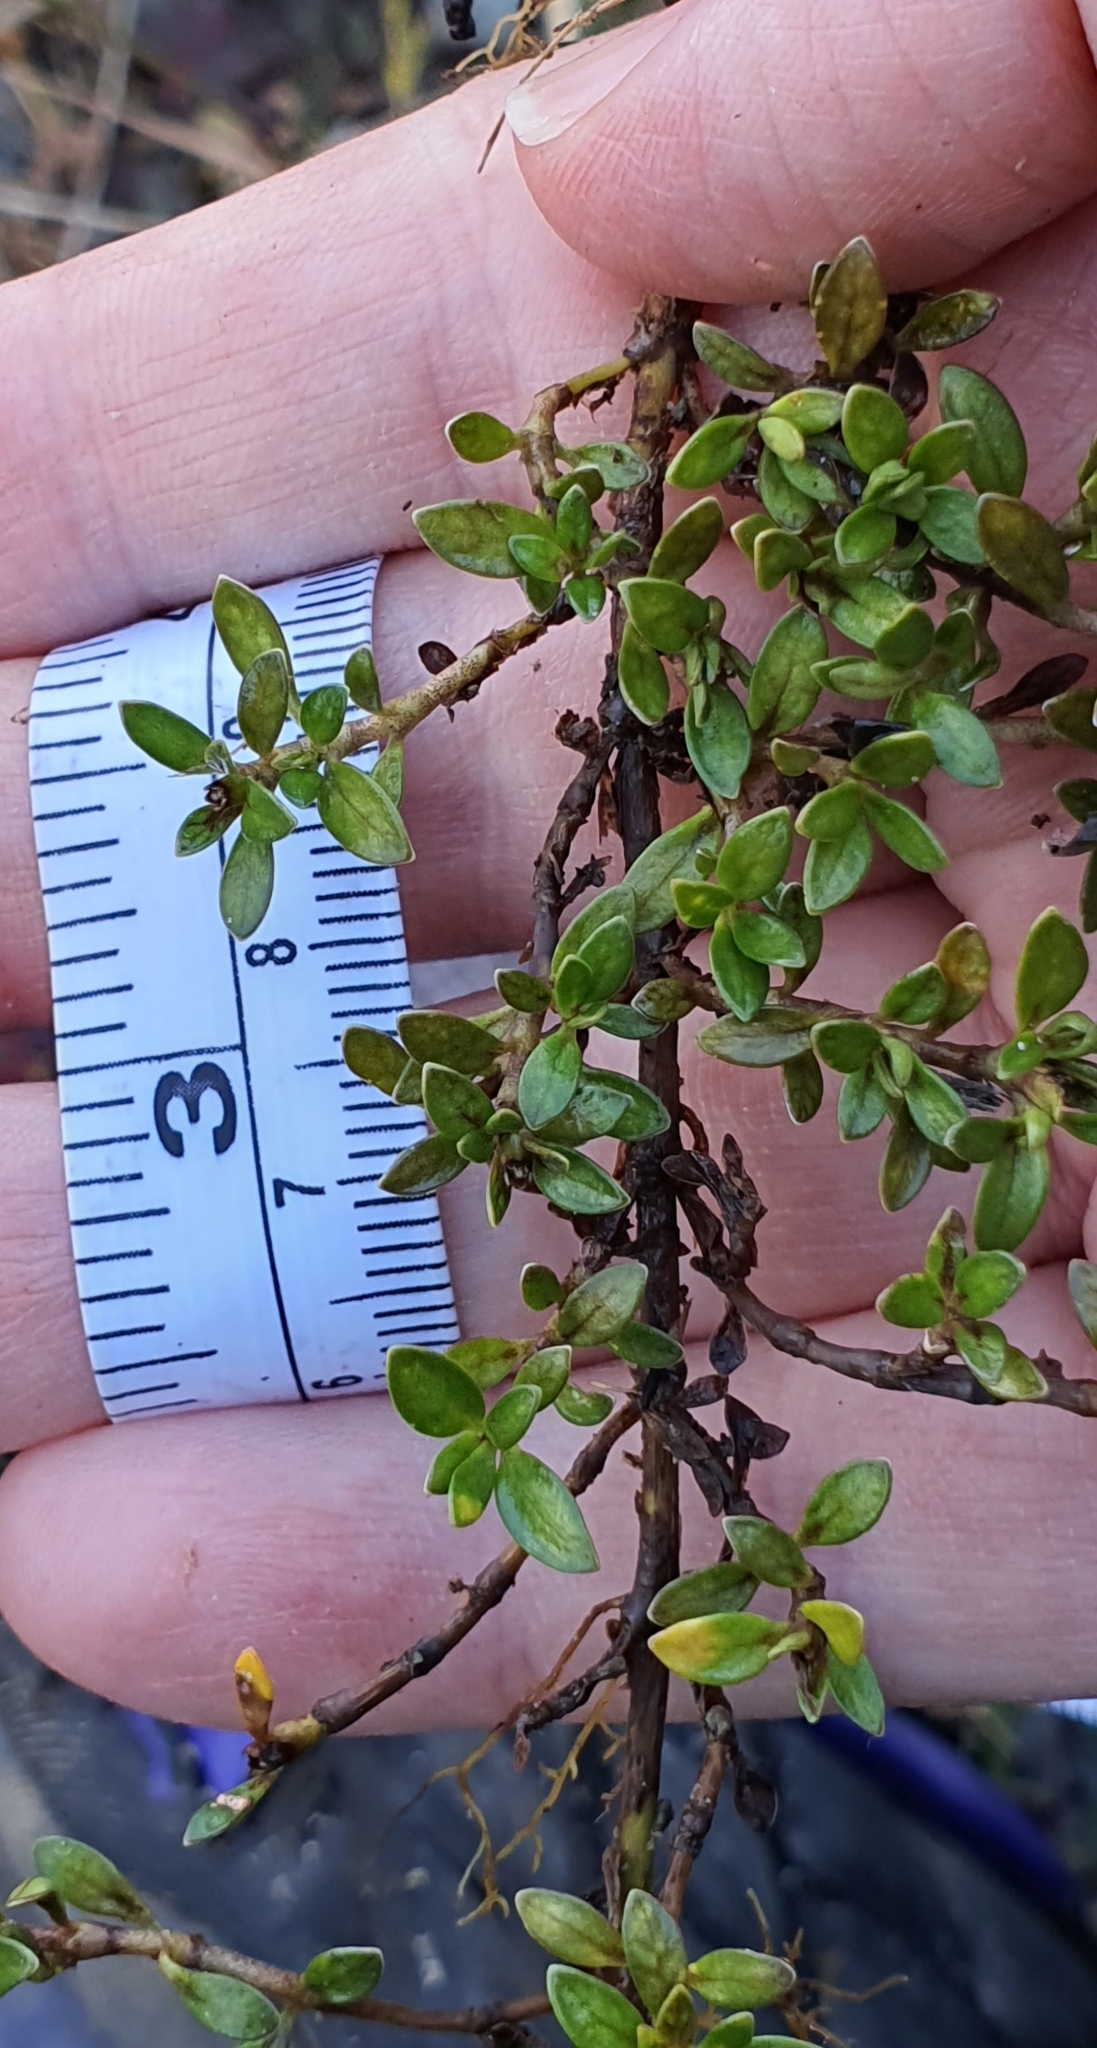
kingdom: Plantae
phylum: Tracheophyta
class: Magnoliopsida
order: Gentianales
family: Rubiaceae
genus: Coprosma
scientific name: Coprosma perpusilla
